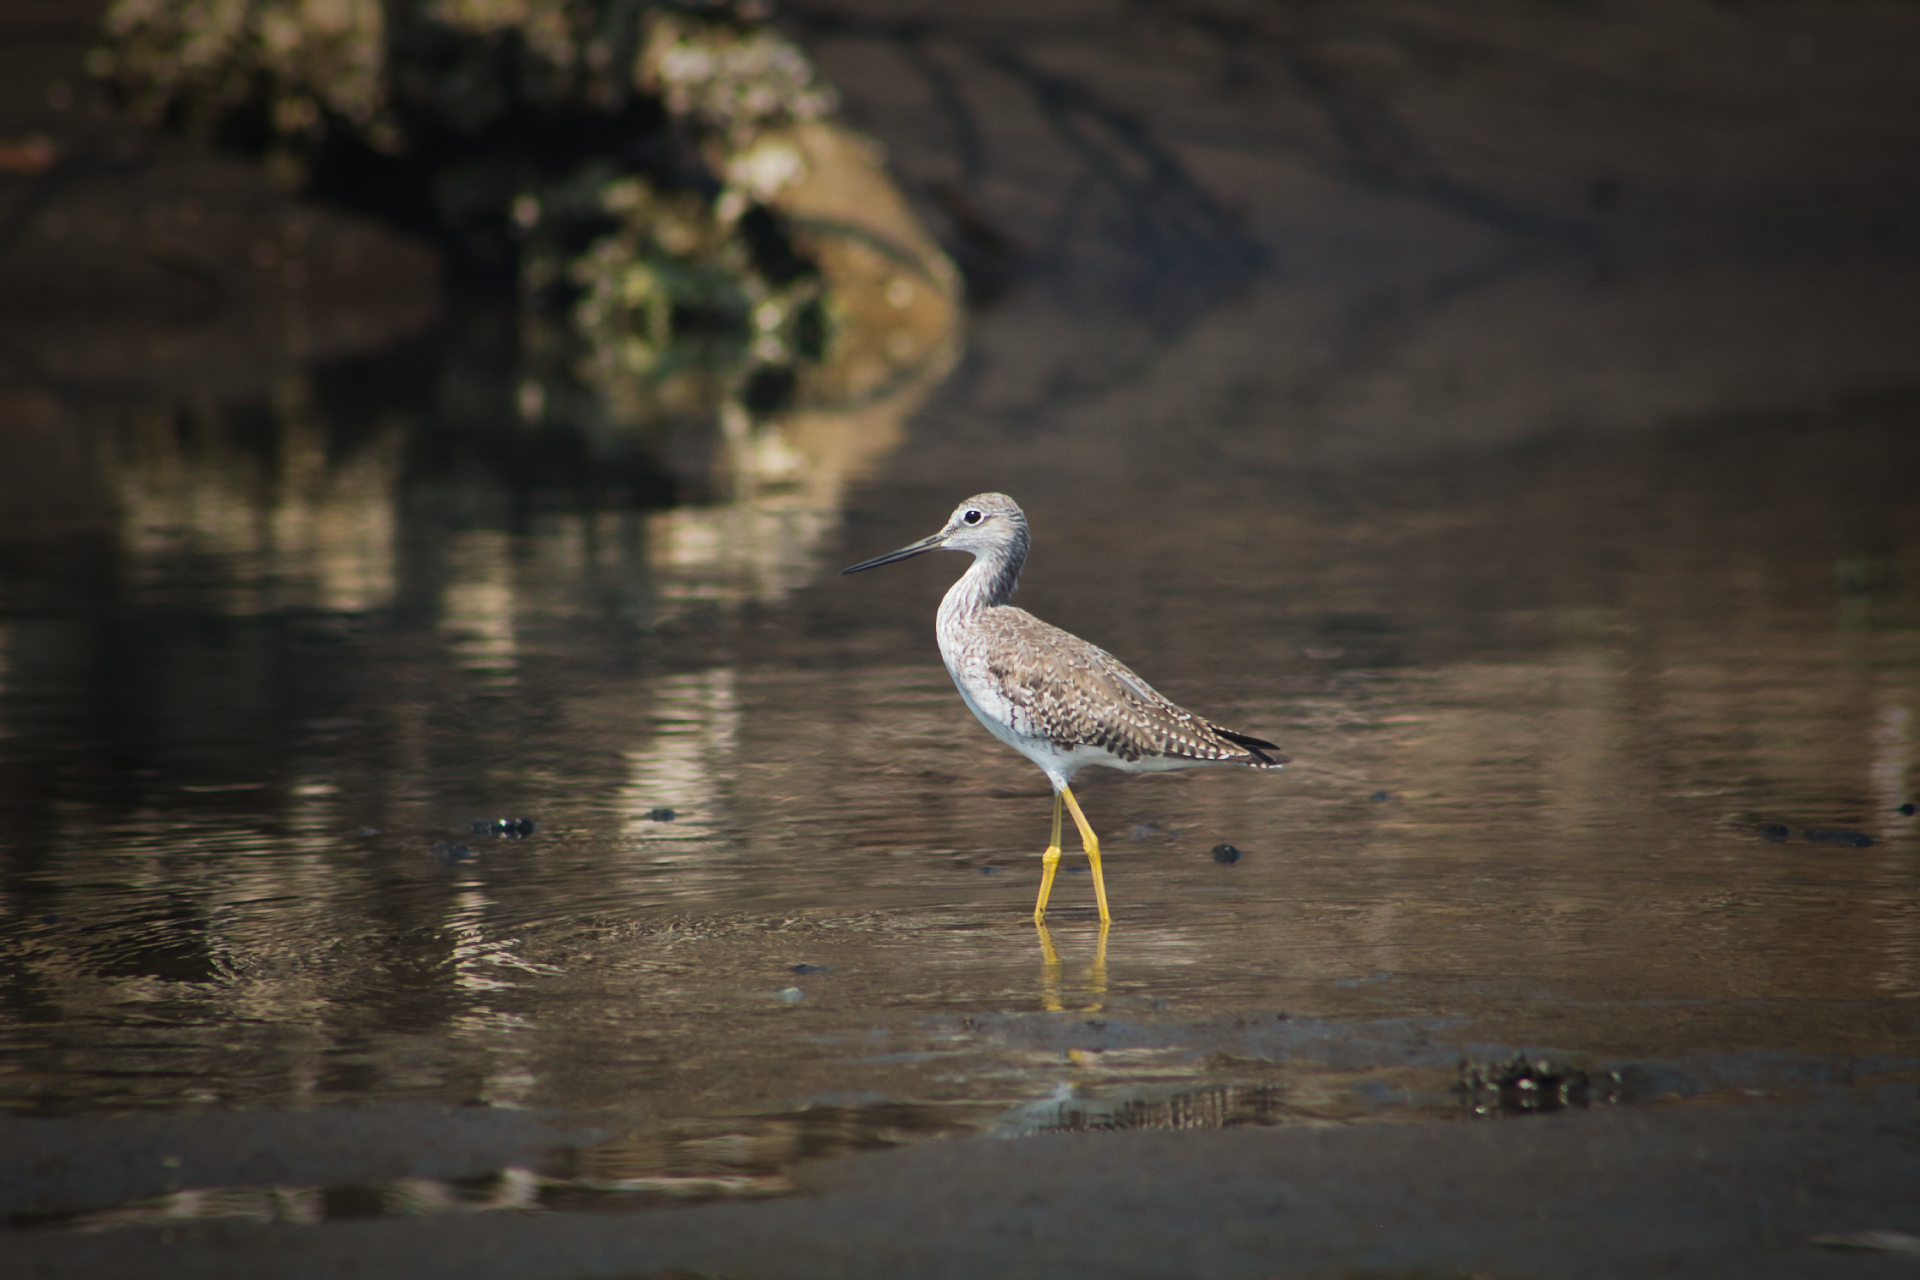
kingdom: Animalia
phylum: Chordata
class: Aves
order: Charadriiformes
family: Scolopacidae
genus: Tringa
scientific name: Tringa melanoleuca
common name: Greater yellowlegs
